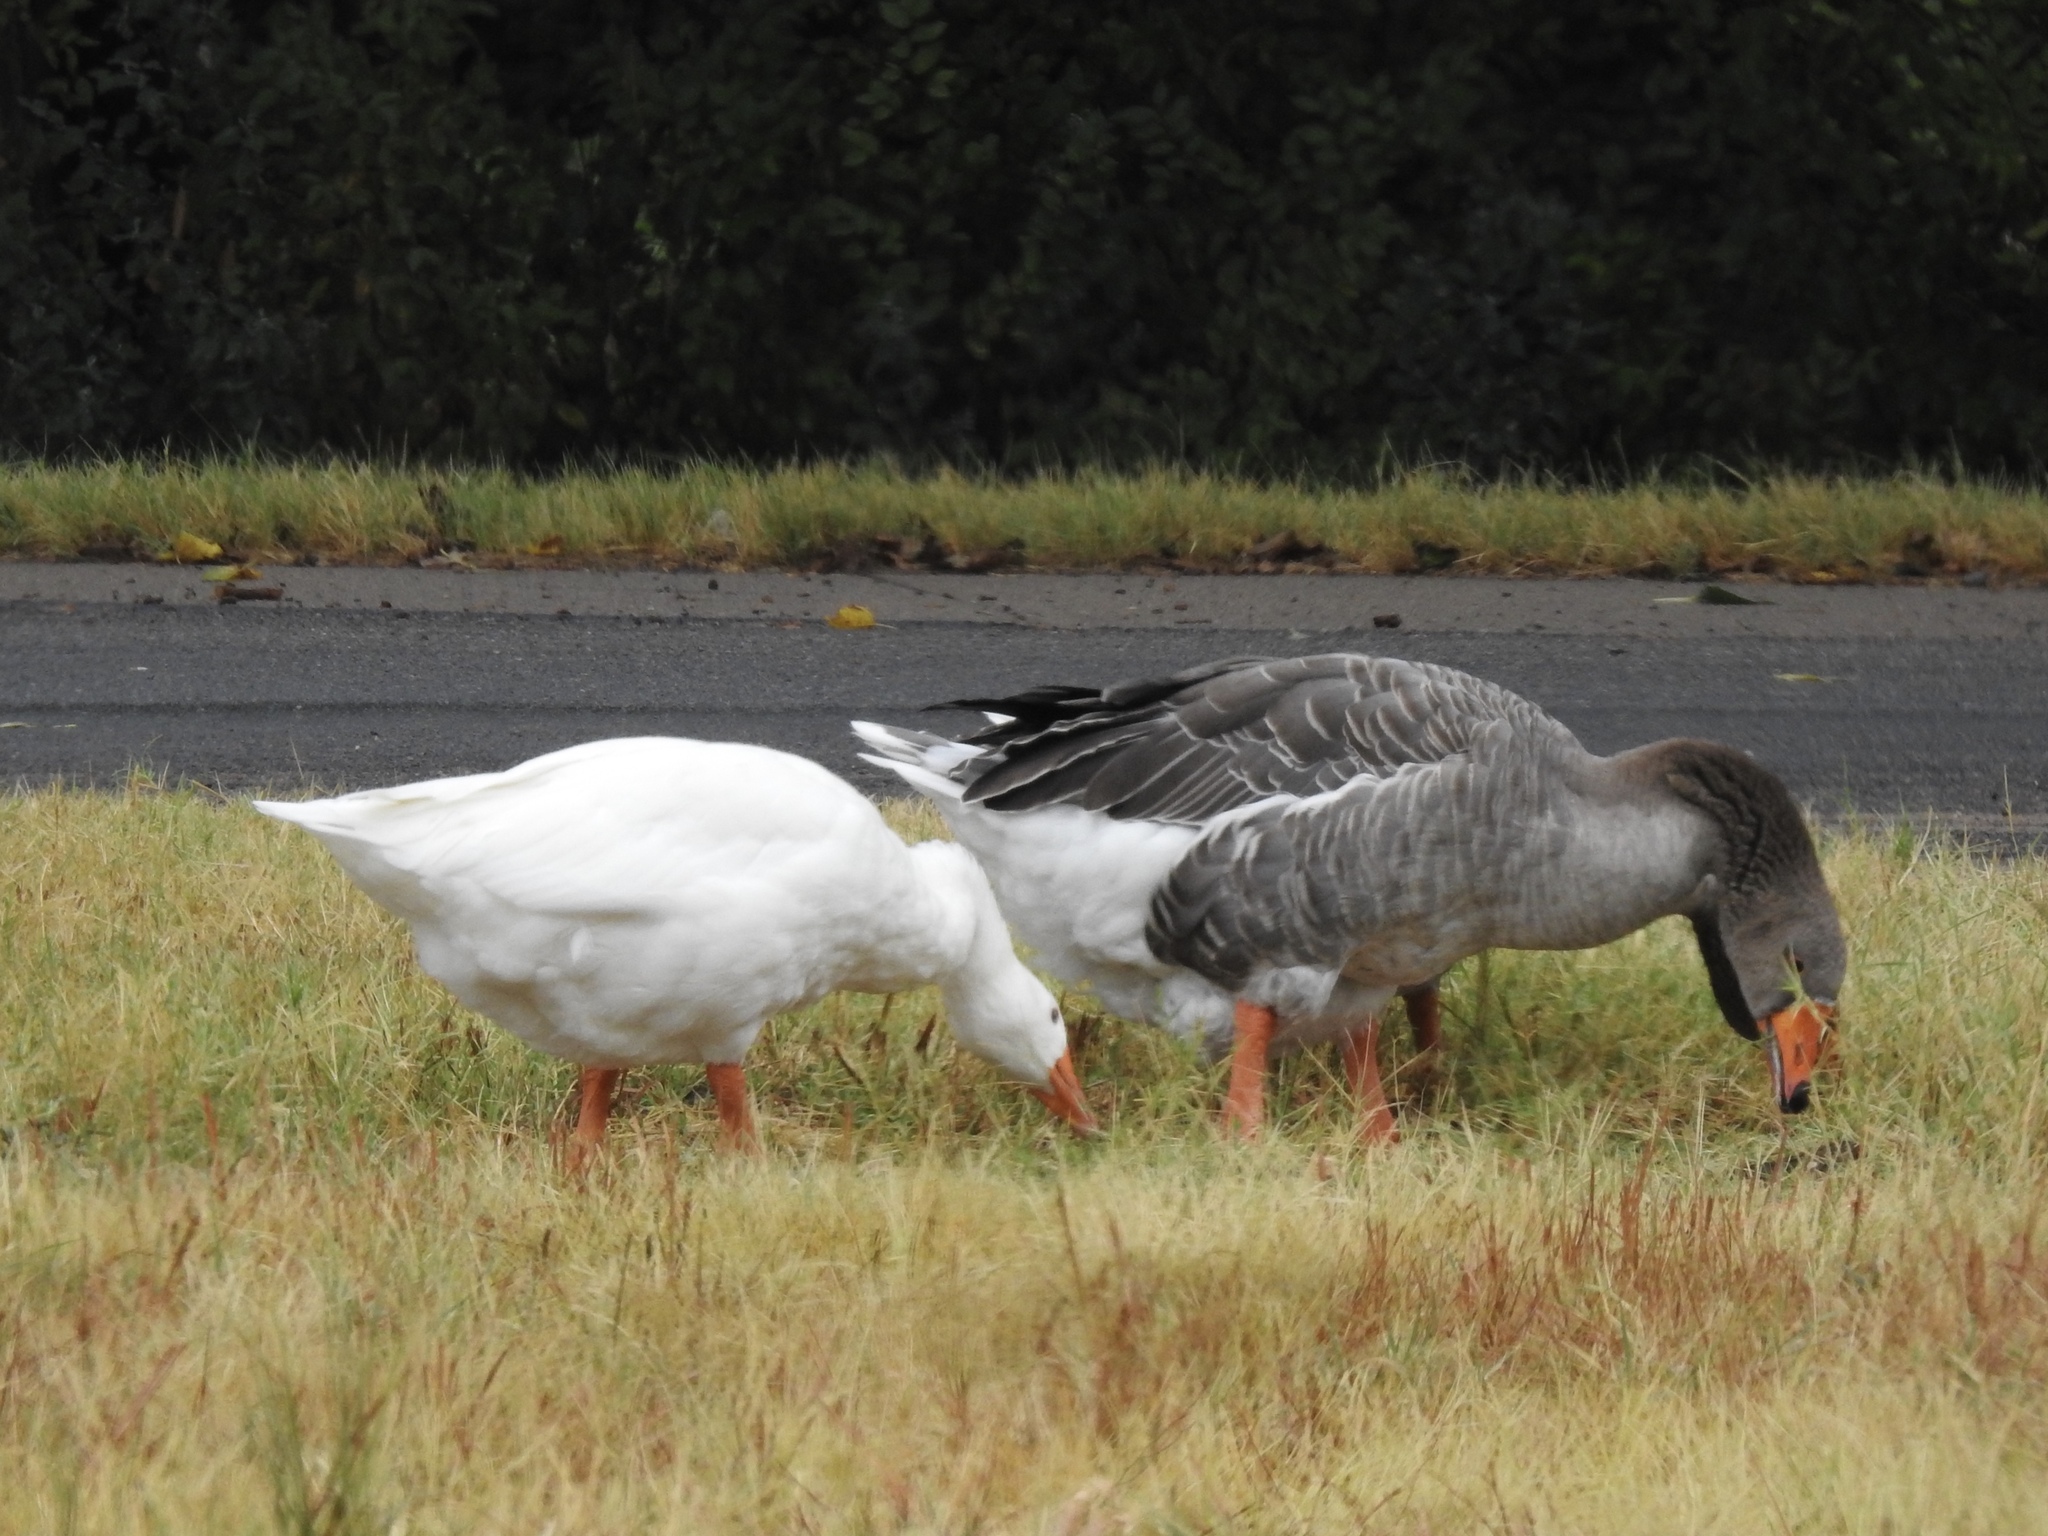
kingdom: Animalia
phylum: Chordata
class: Aves
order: Anseriformes
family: Anatidae
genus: Anser
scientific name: Anser anser
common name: Greylag goose
